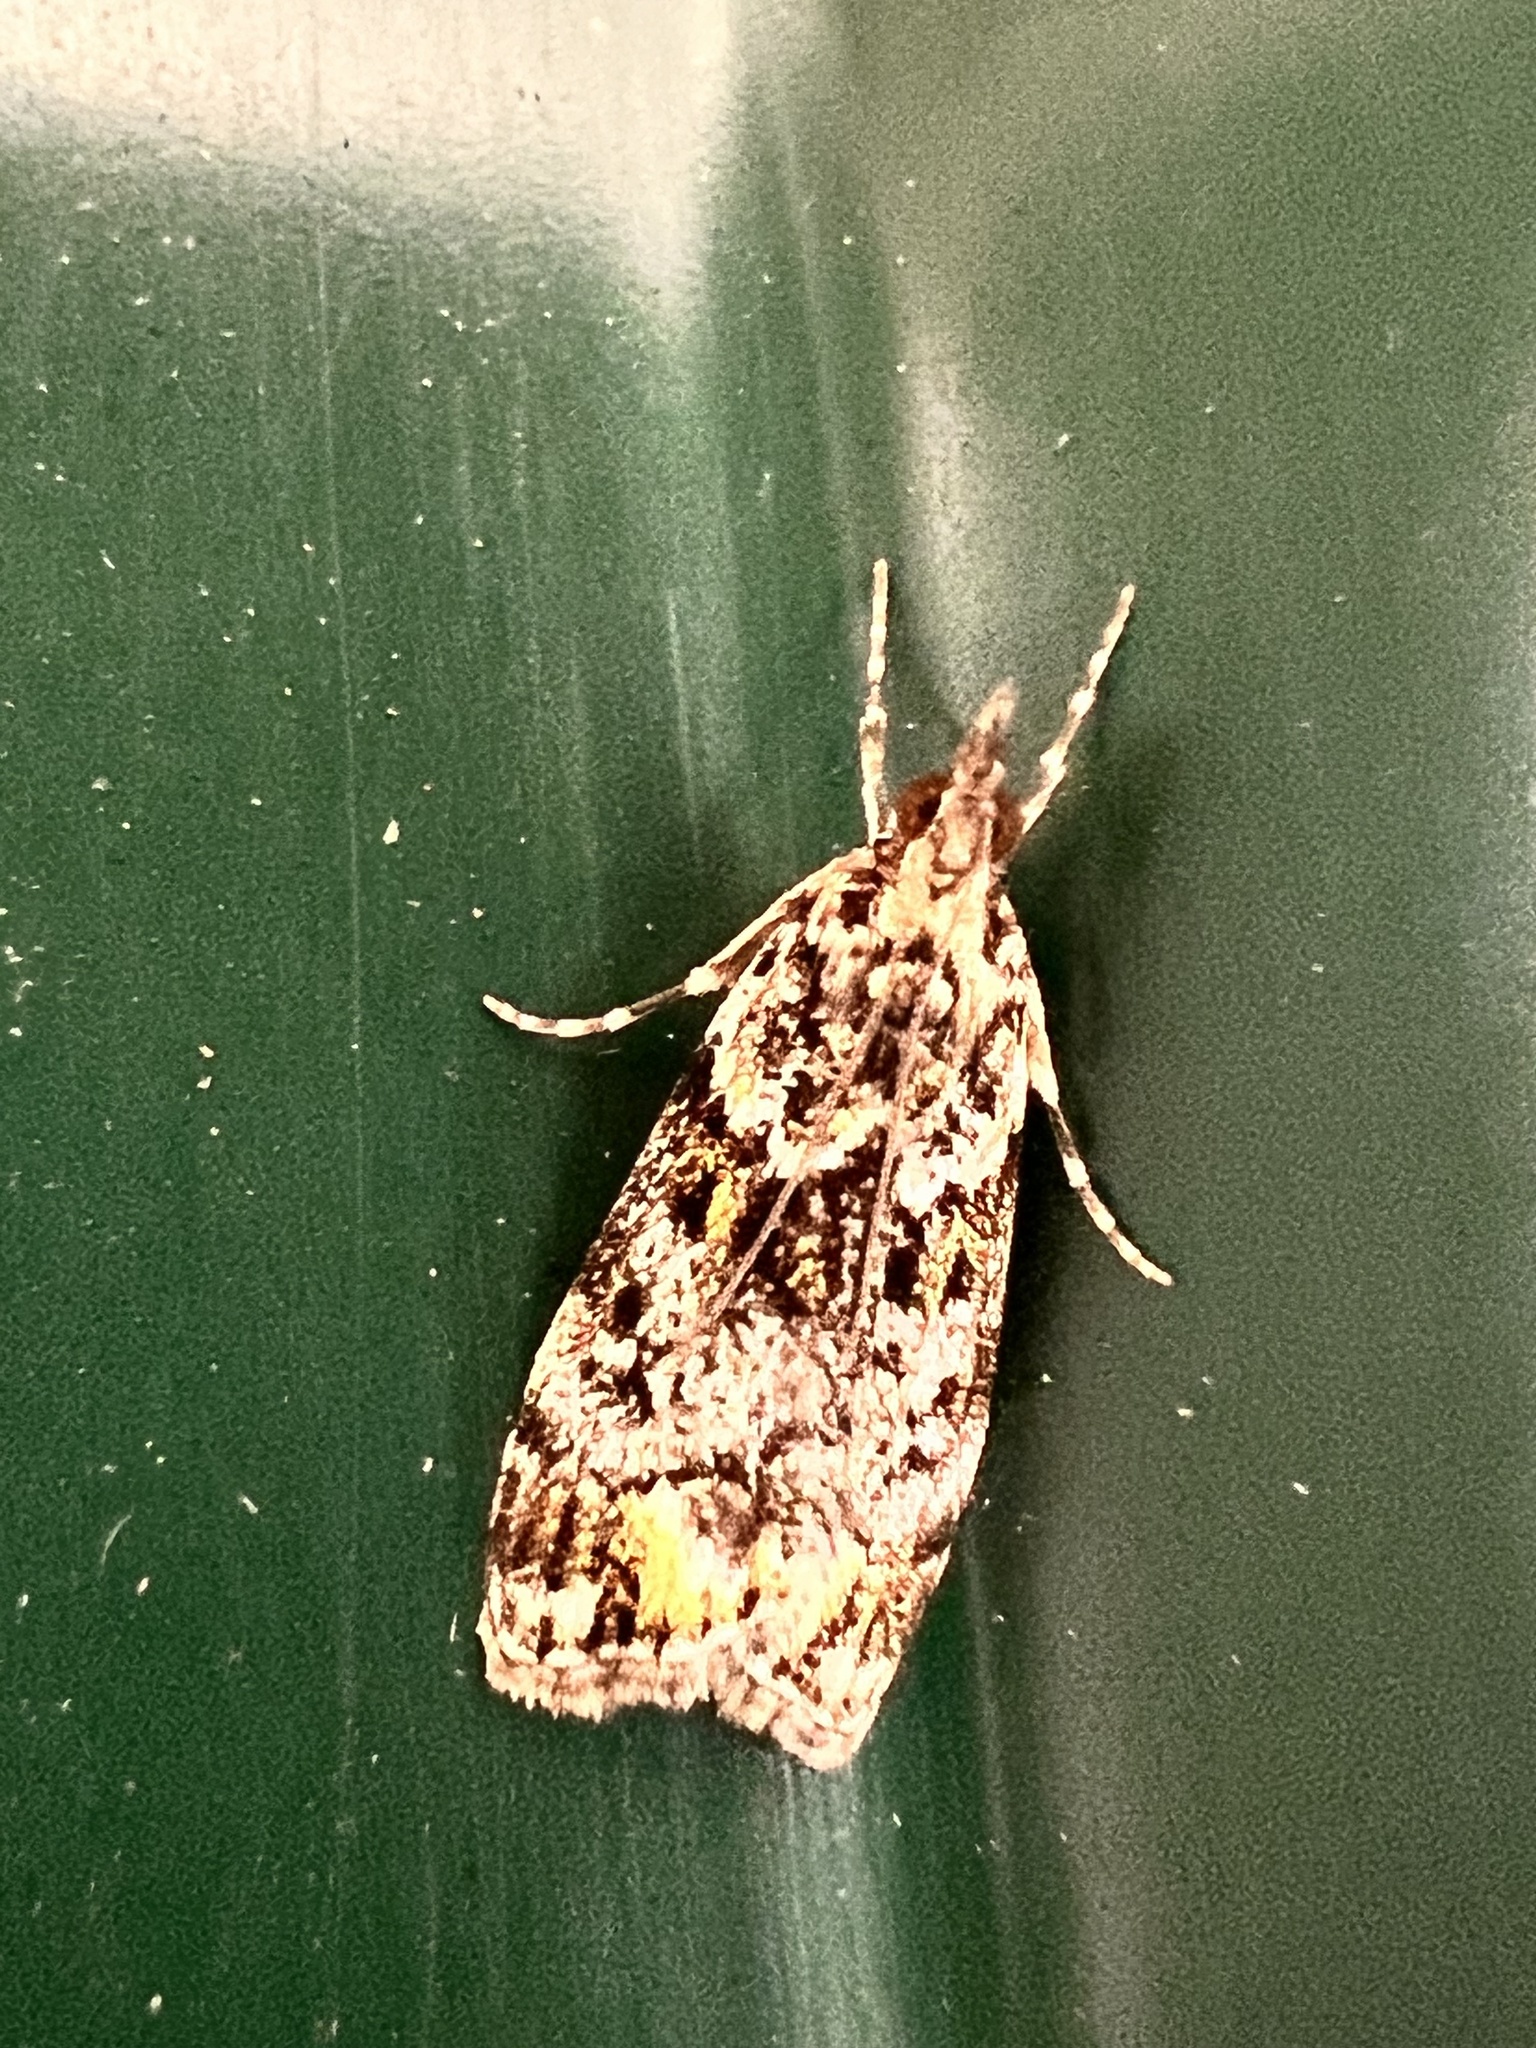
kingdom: Animalia
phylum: Arthropoda
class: Insecta
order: Lepidoptera
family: Crambidae
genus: Eudonia
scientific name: Eudonia minualis
